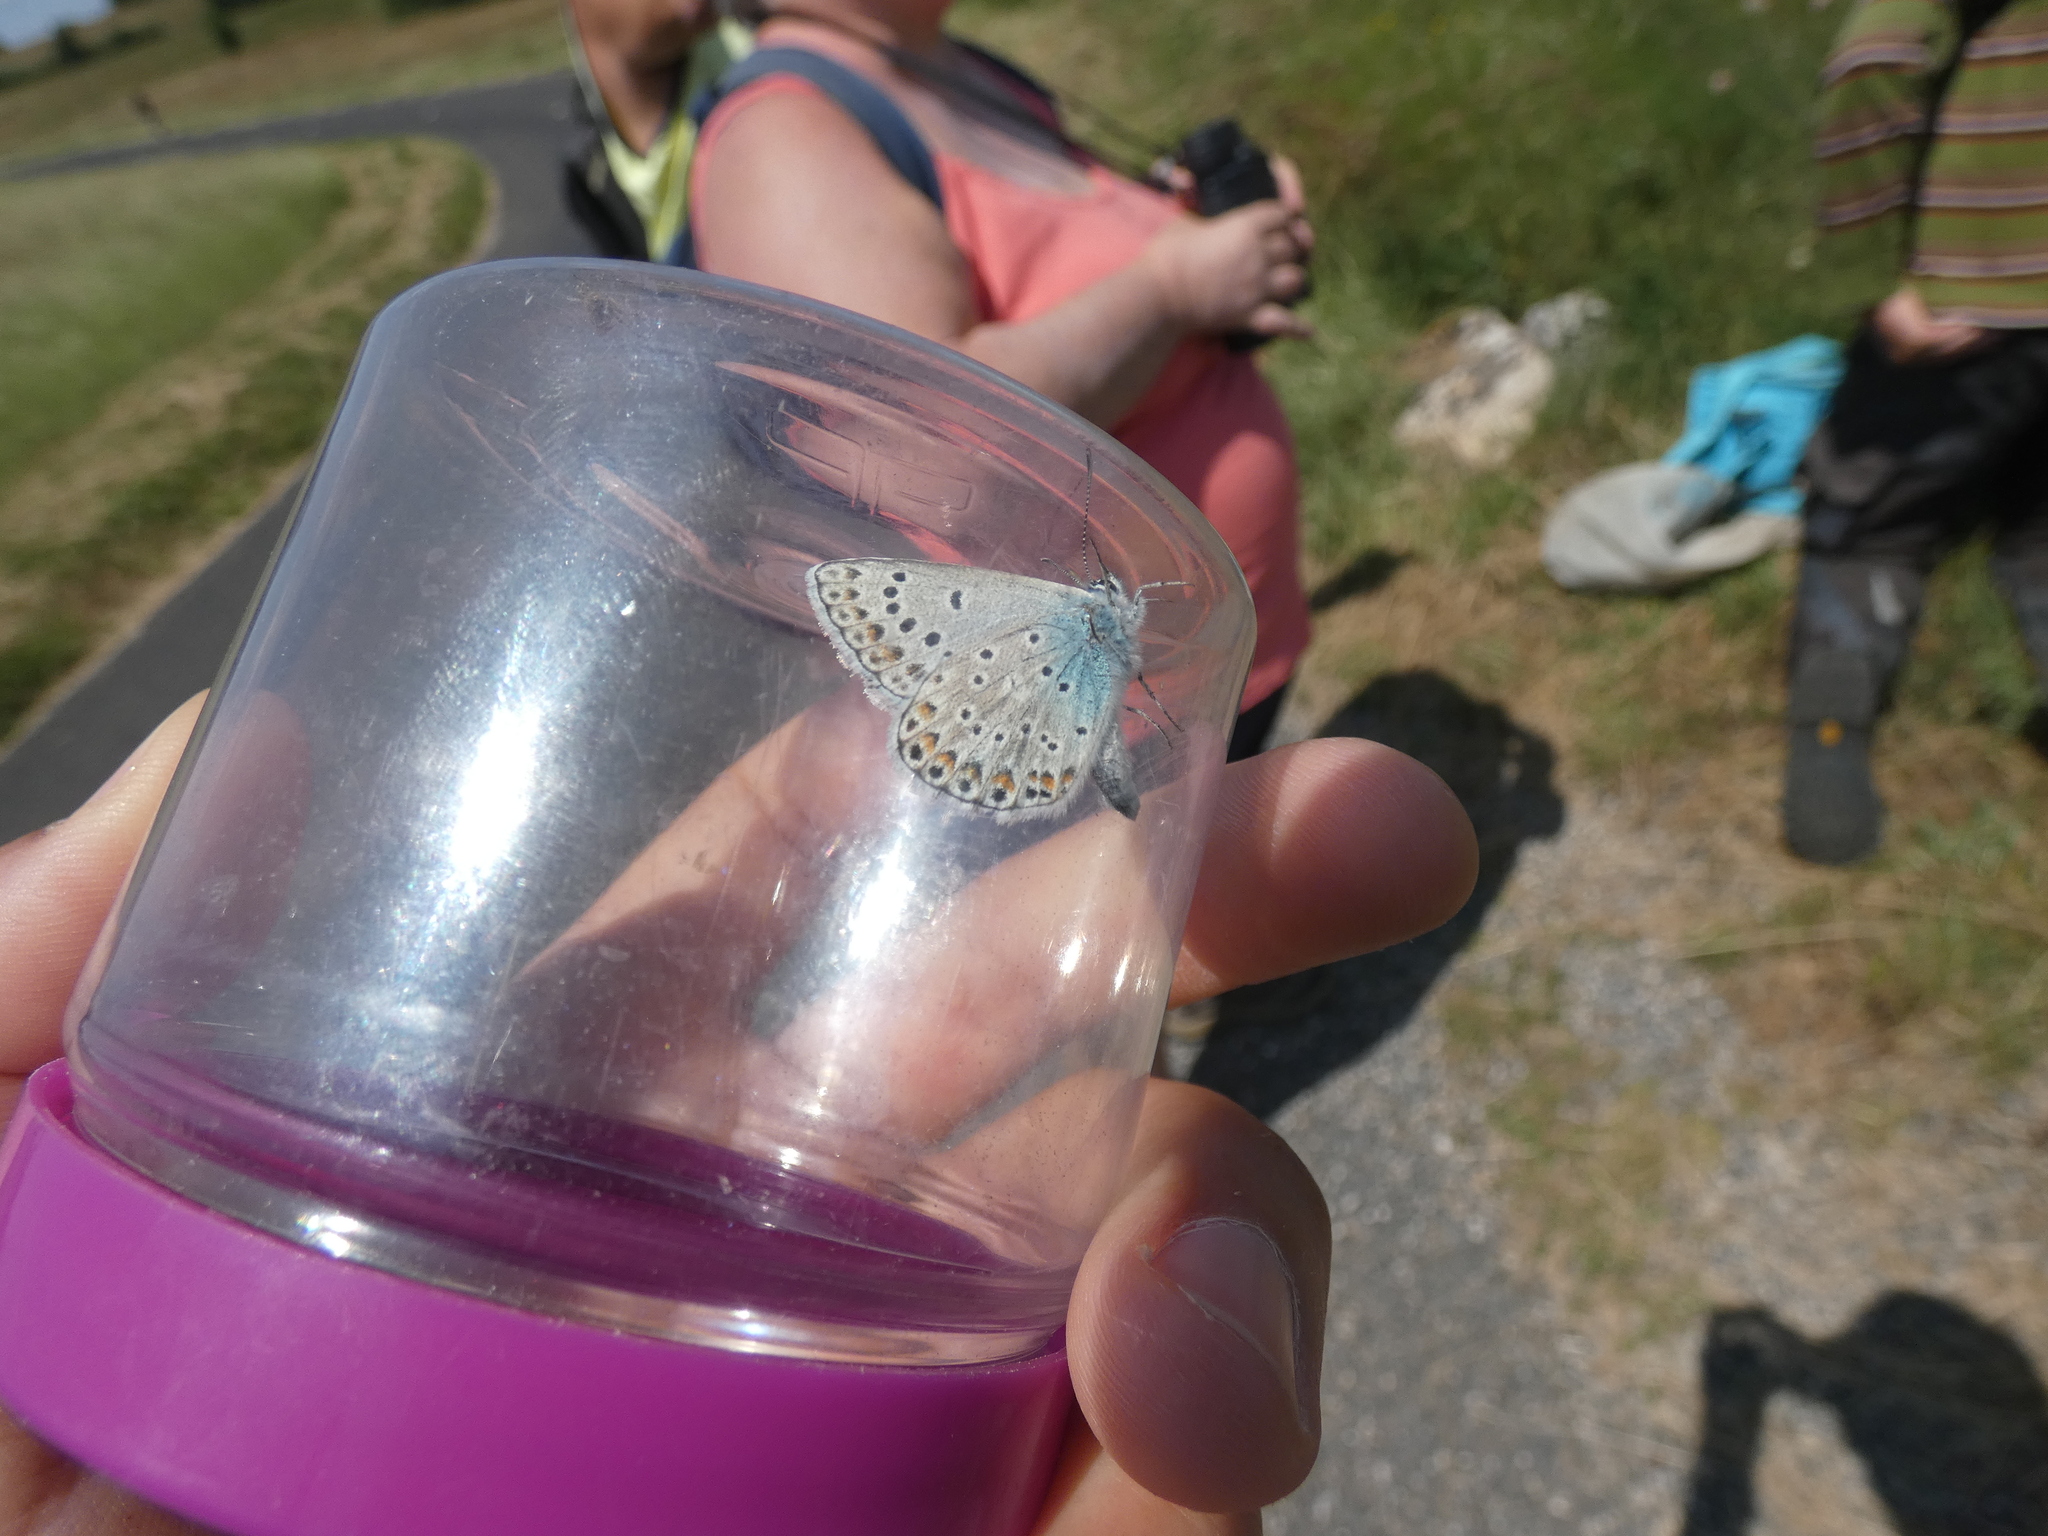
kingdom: Animalia
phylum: Arthropoda
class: Insecta
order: Lepidoptera
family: Lycaenidae
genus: Plebicula
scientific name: Plebicula escheri
